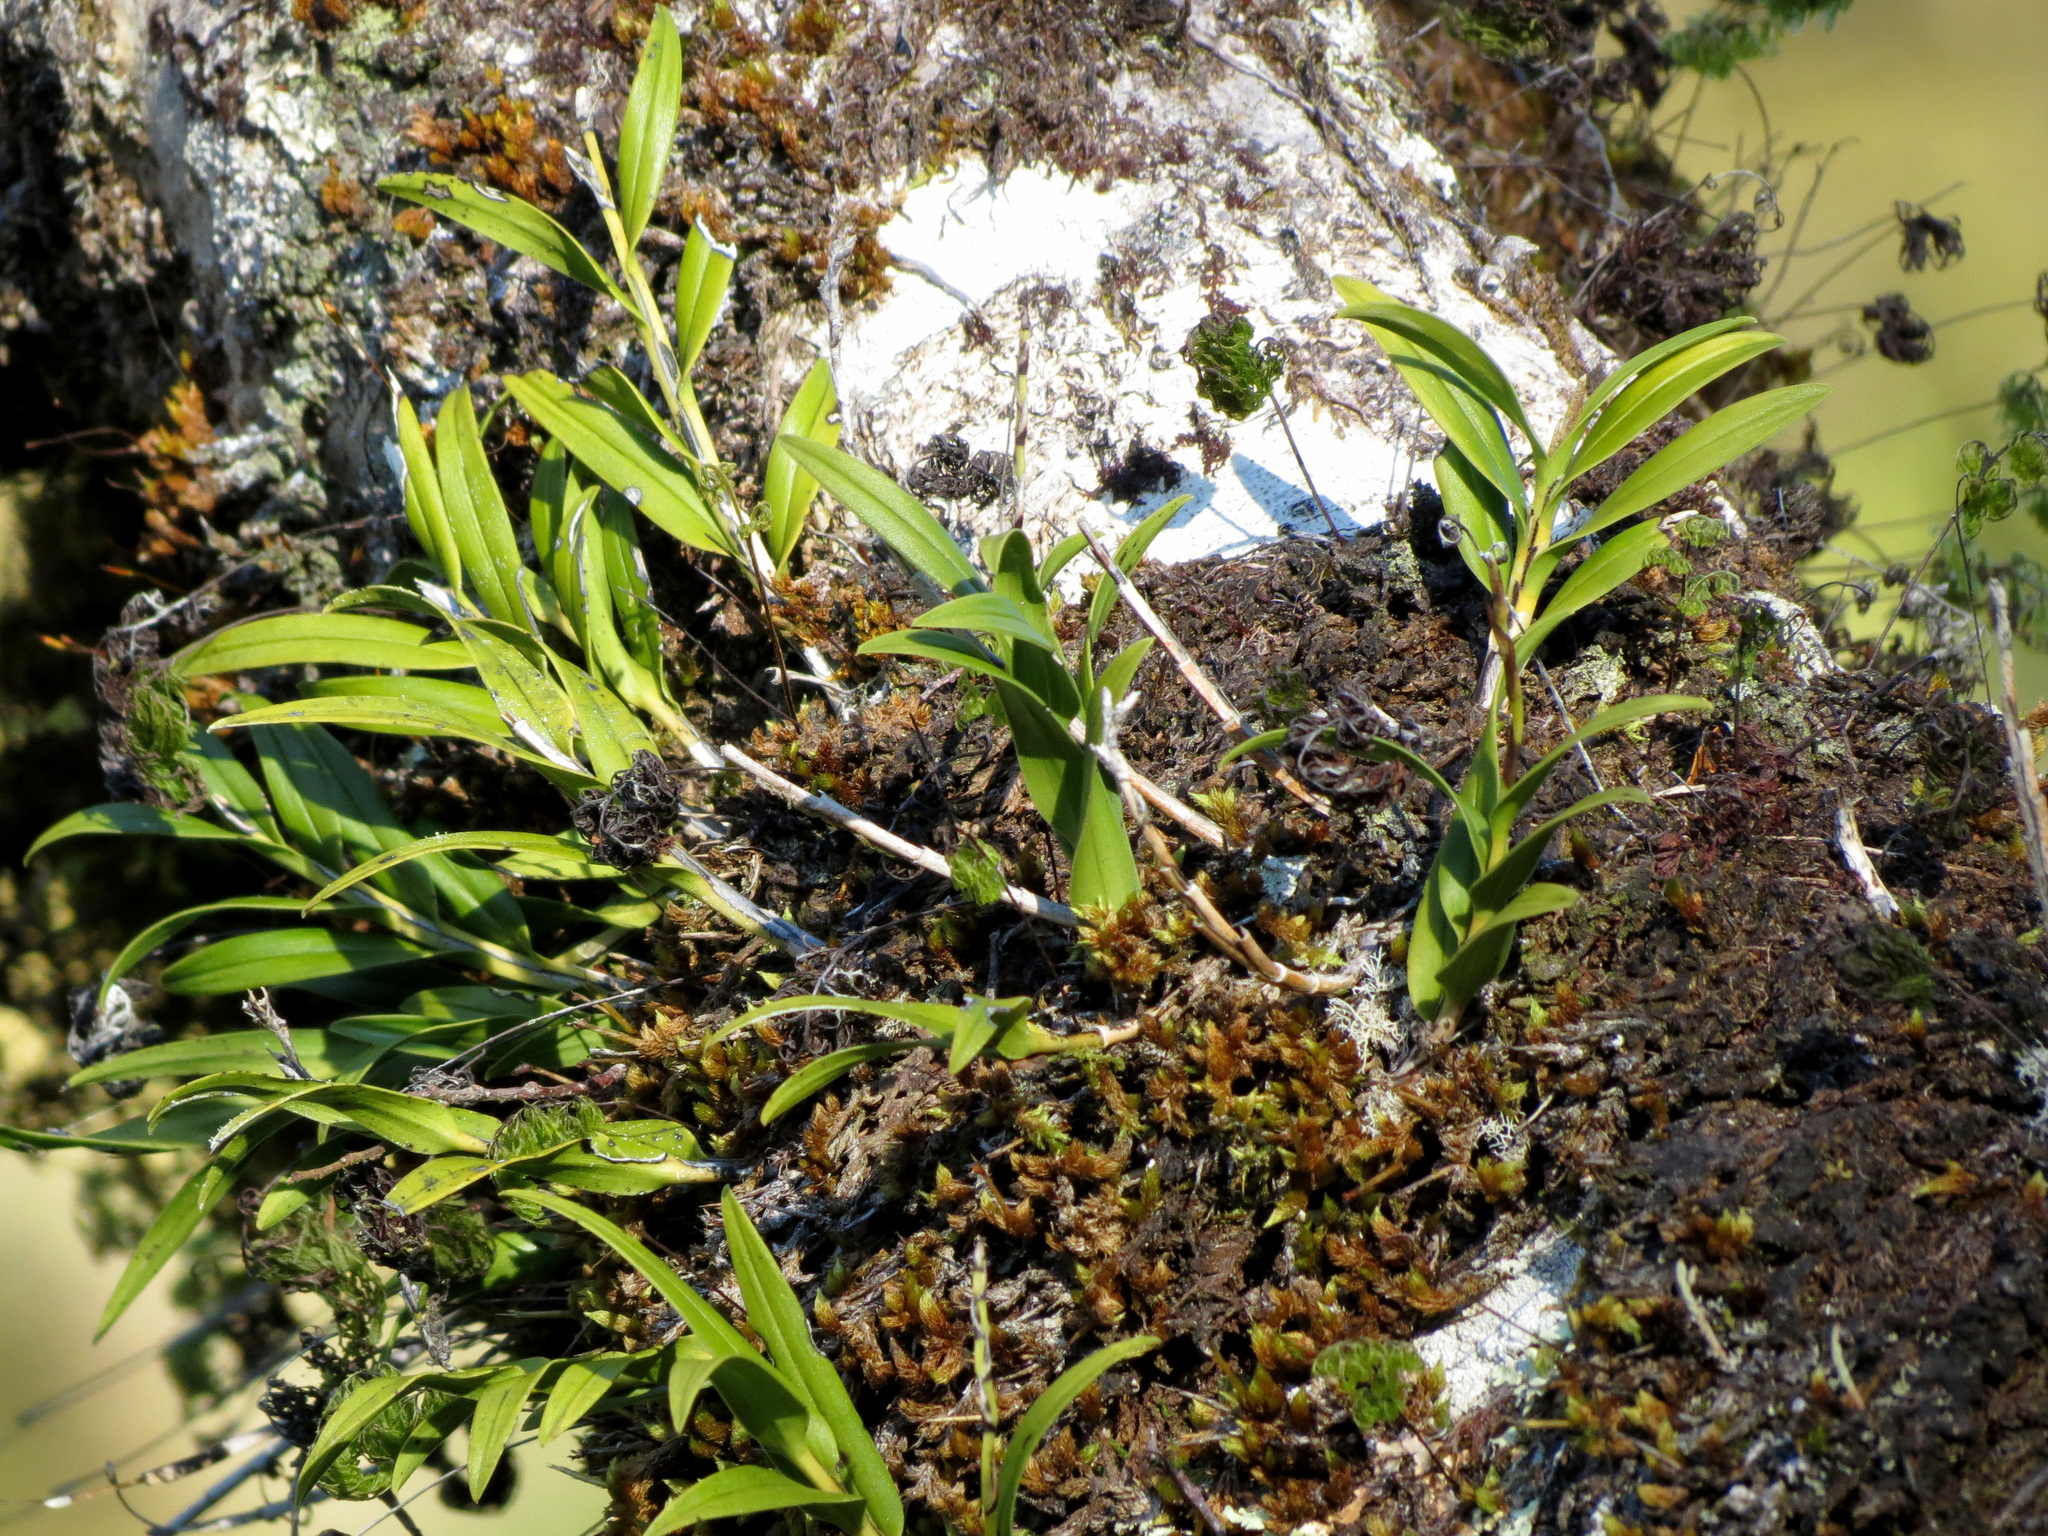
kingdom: Plantae
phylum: Tracheophyta
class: Liliopsida
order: Asparagales
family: Orchidaceae
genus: Earina
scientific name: Earina autumnalis
